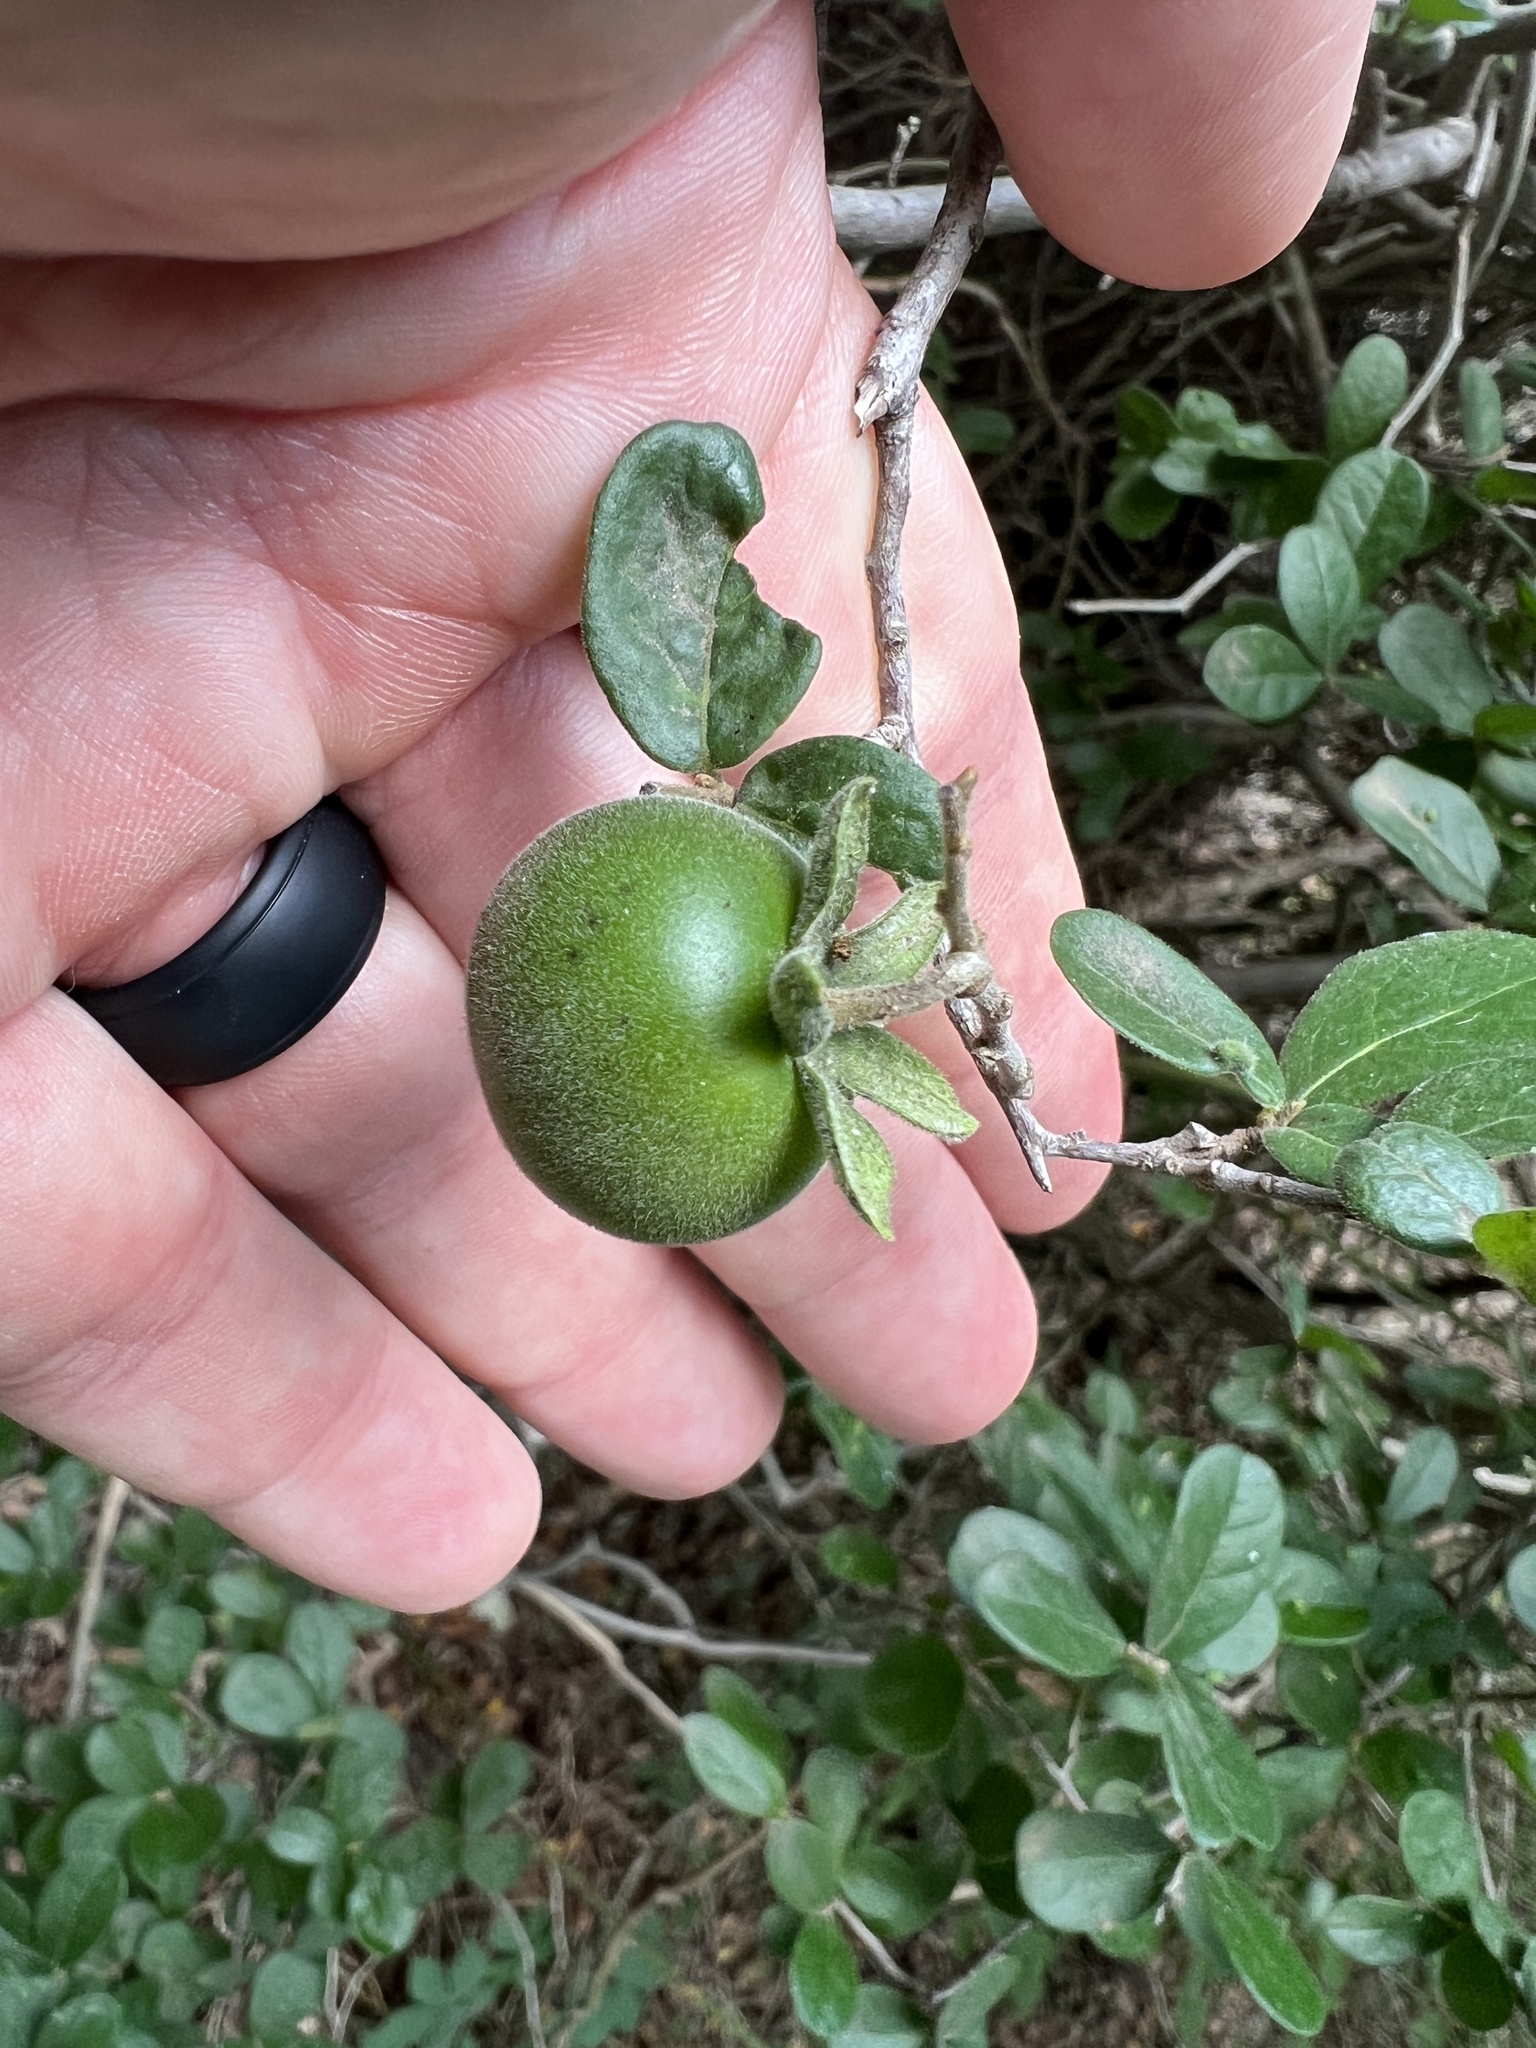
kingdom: Plantae
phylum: Tracheophyta
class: Magnoliopsida
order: Ericales
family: Ebenaceae
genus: Diospyros
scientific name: Diospyros texana
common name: Texas persimmon
